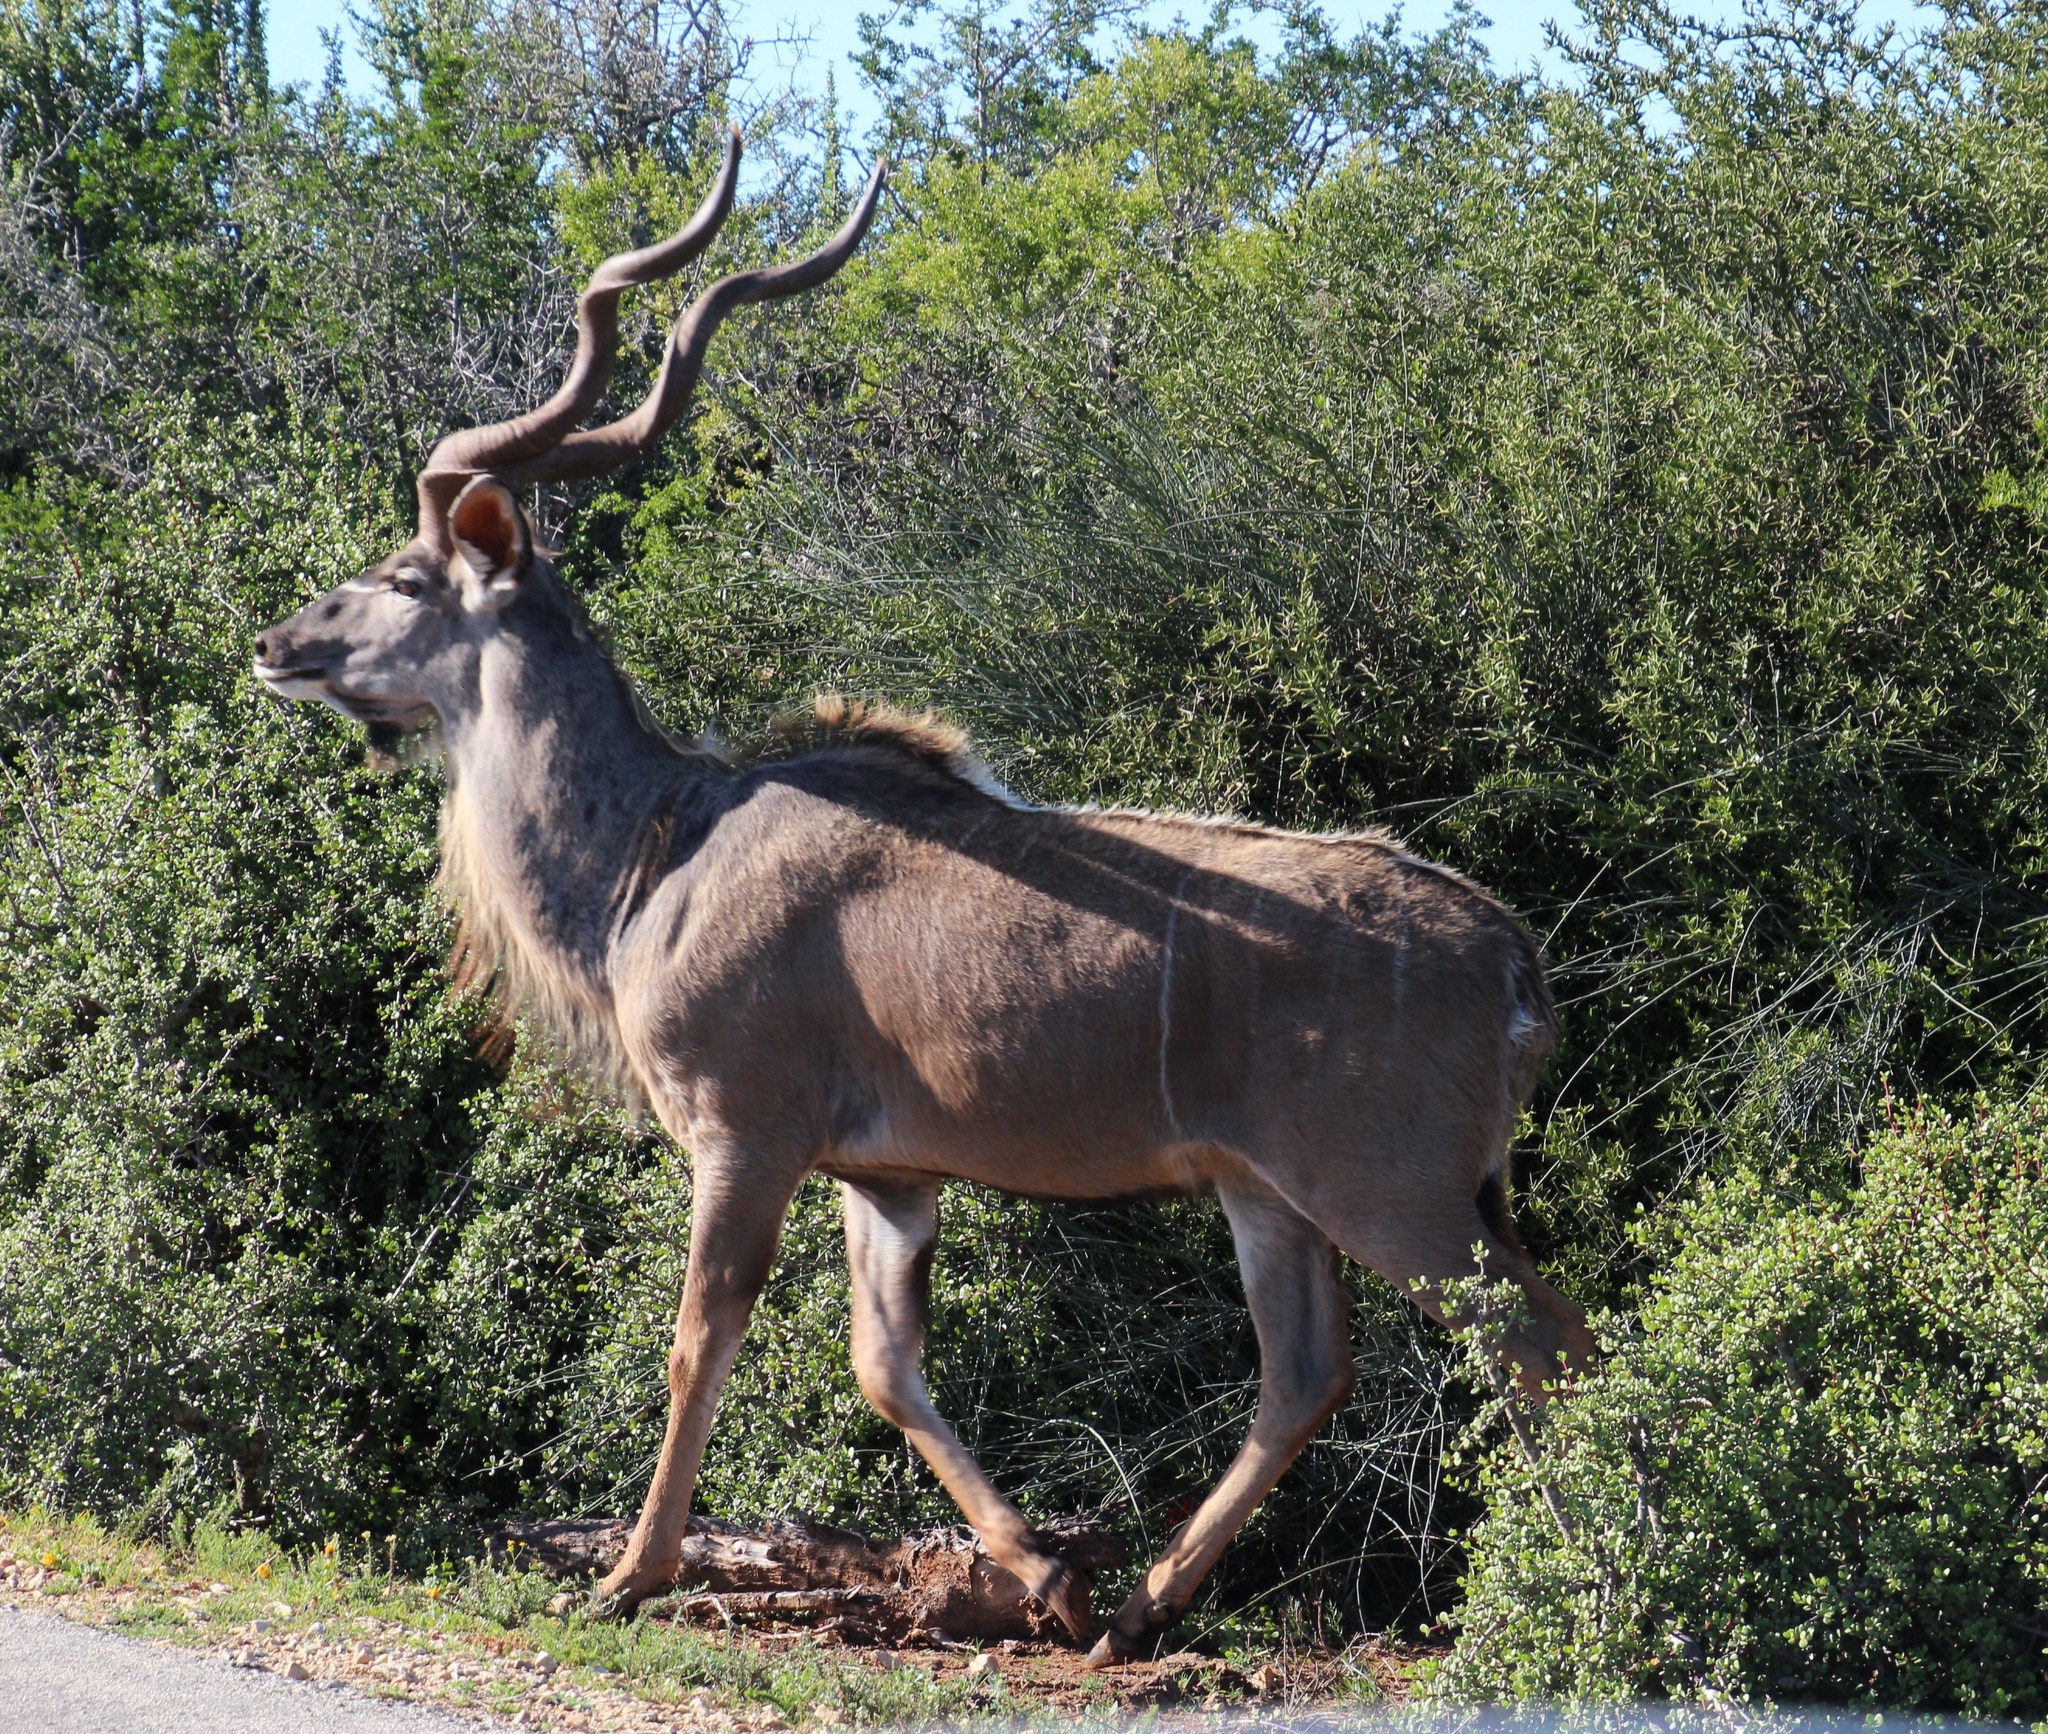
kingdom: Animalia
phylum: Chordata
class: Mammalia
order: Artiodactyla
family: Bovidae
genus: Tragelaphus
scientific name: Tragelaphus strepsiceros
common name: Greater kudu
